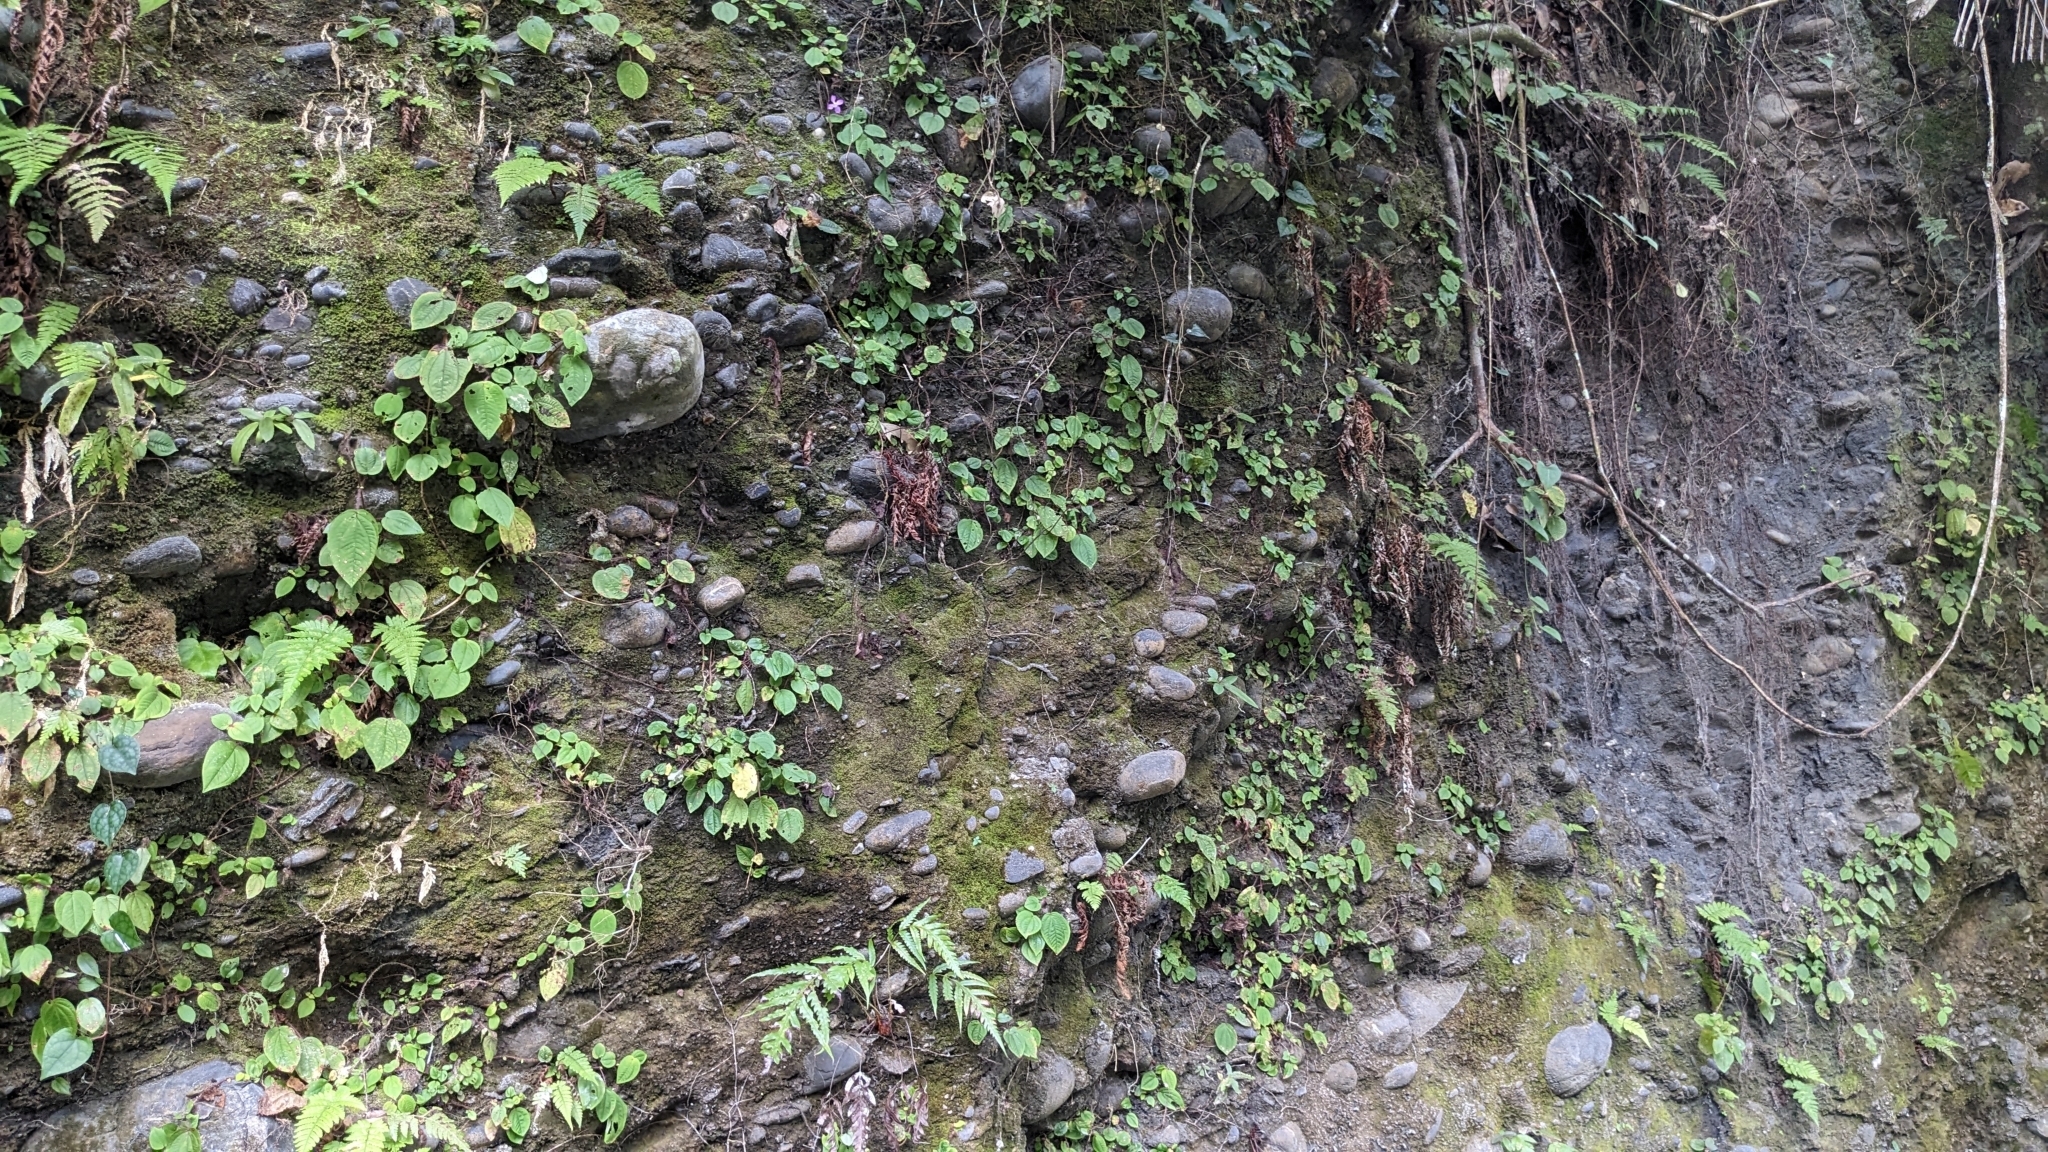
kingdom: Plantae
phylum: Tracheophyta
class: Magnoliopsida
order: Myrtales
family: Melastomataceae
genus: Bredia
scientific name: Bredia dulanica
